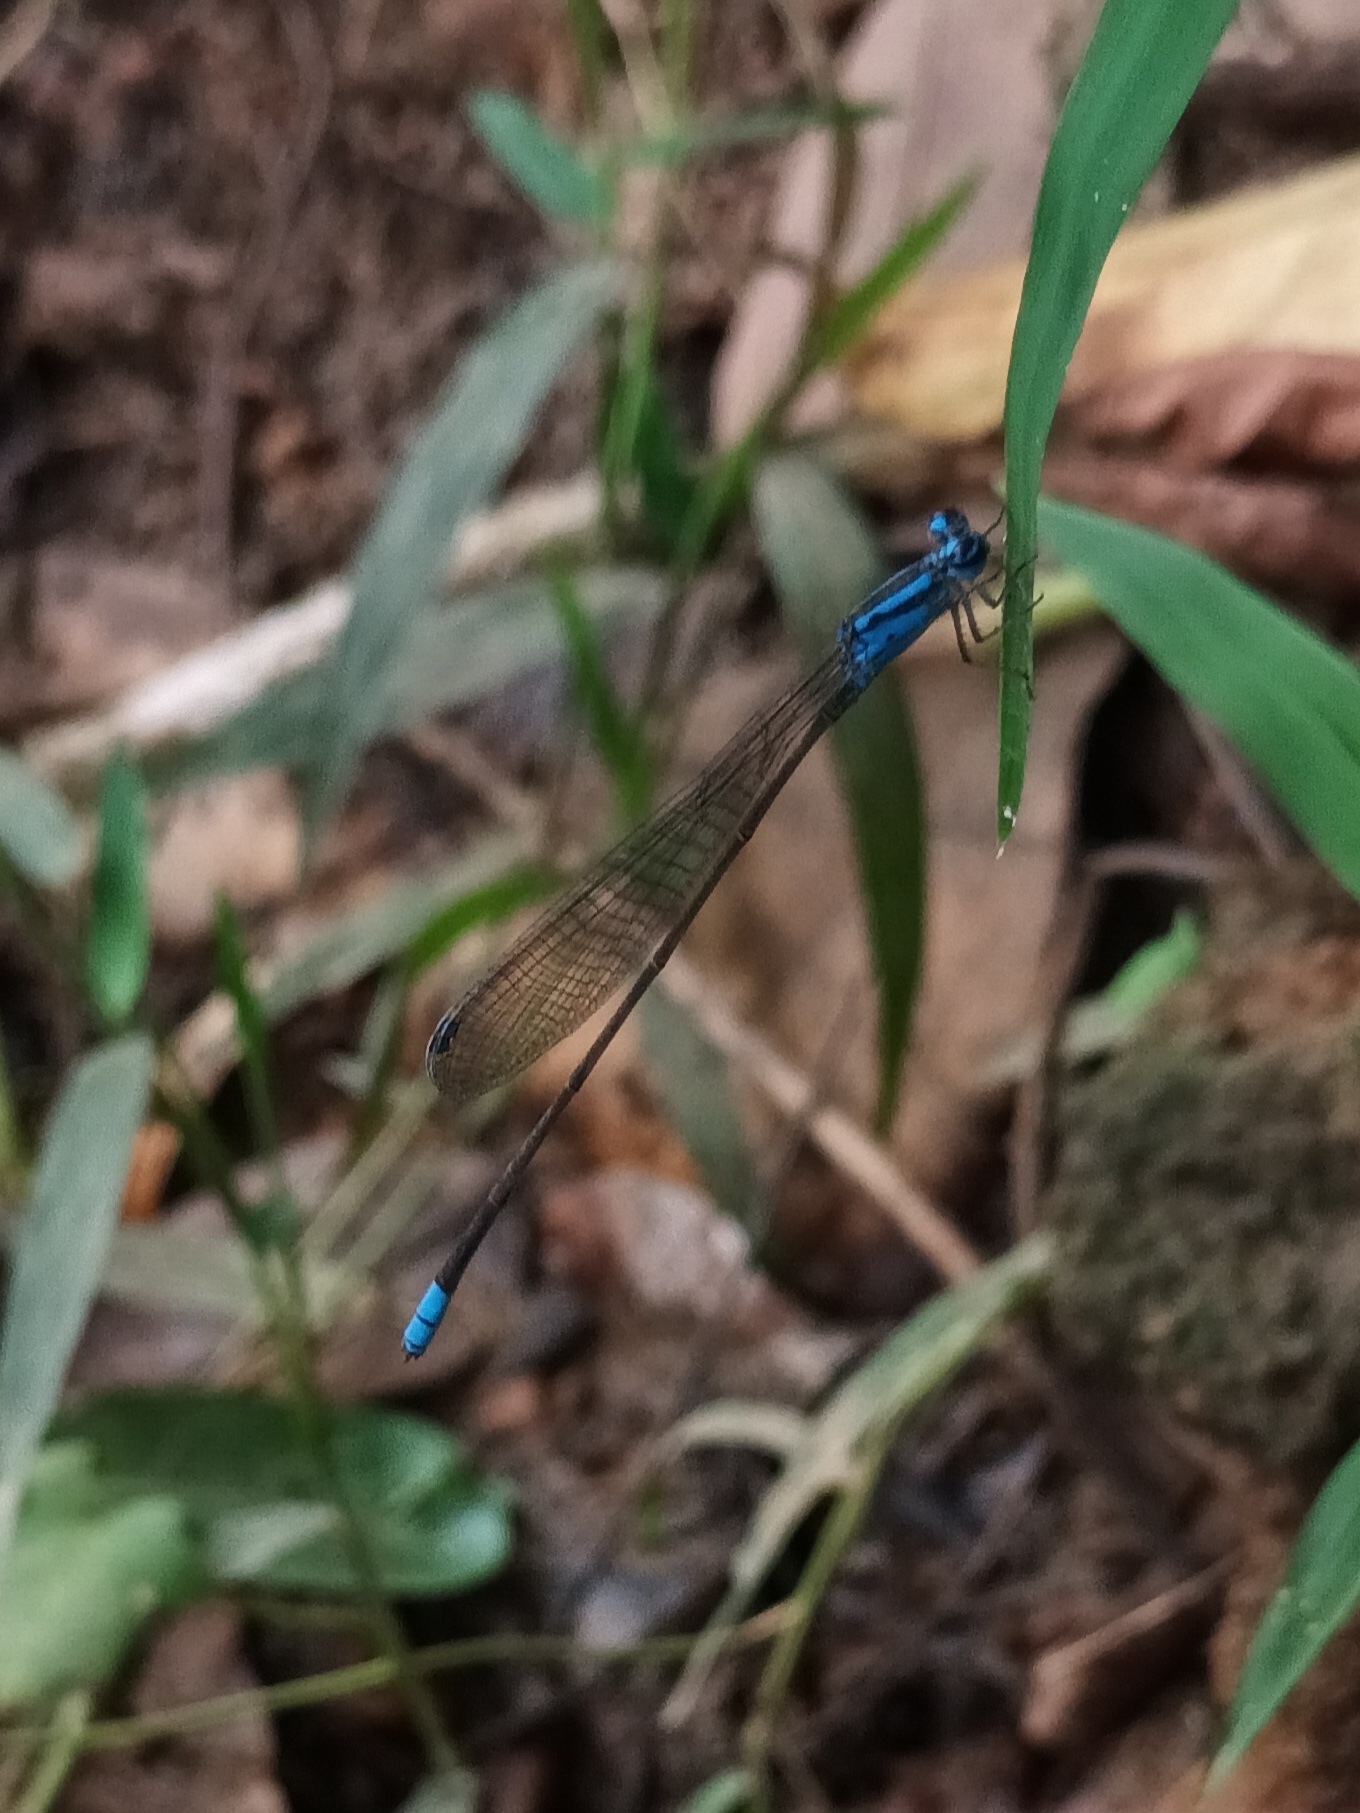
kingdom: Animalia
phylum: Arthropoda
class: Insecta
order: Odonata
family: Coenagrionidae
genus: Archibasis
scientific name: Archibasis oscillans
